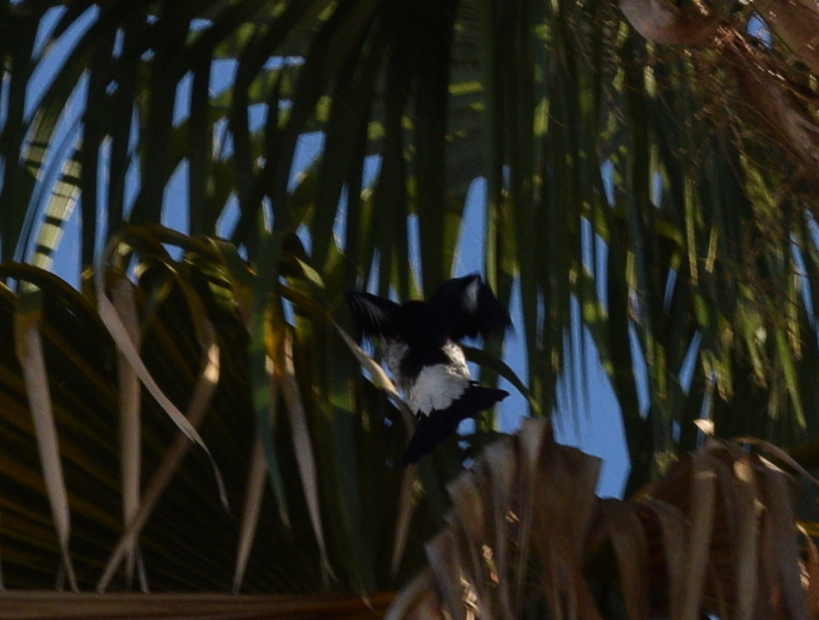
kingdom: Animalia
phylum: Chordata
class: Aves
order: Piciformes
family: Picidae
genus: Melanerpes
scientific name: Melanerpes formicivorus
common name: Acorn woodpecker
